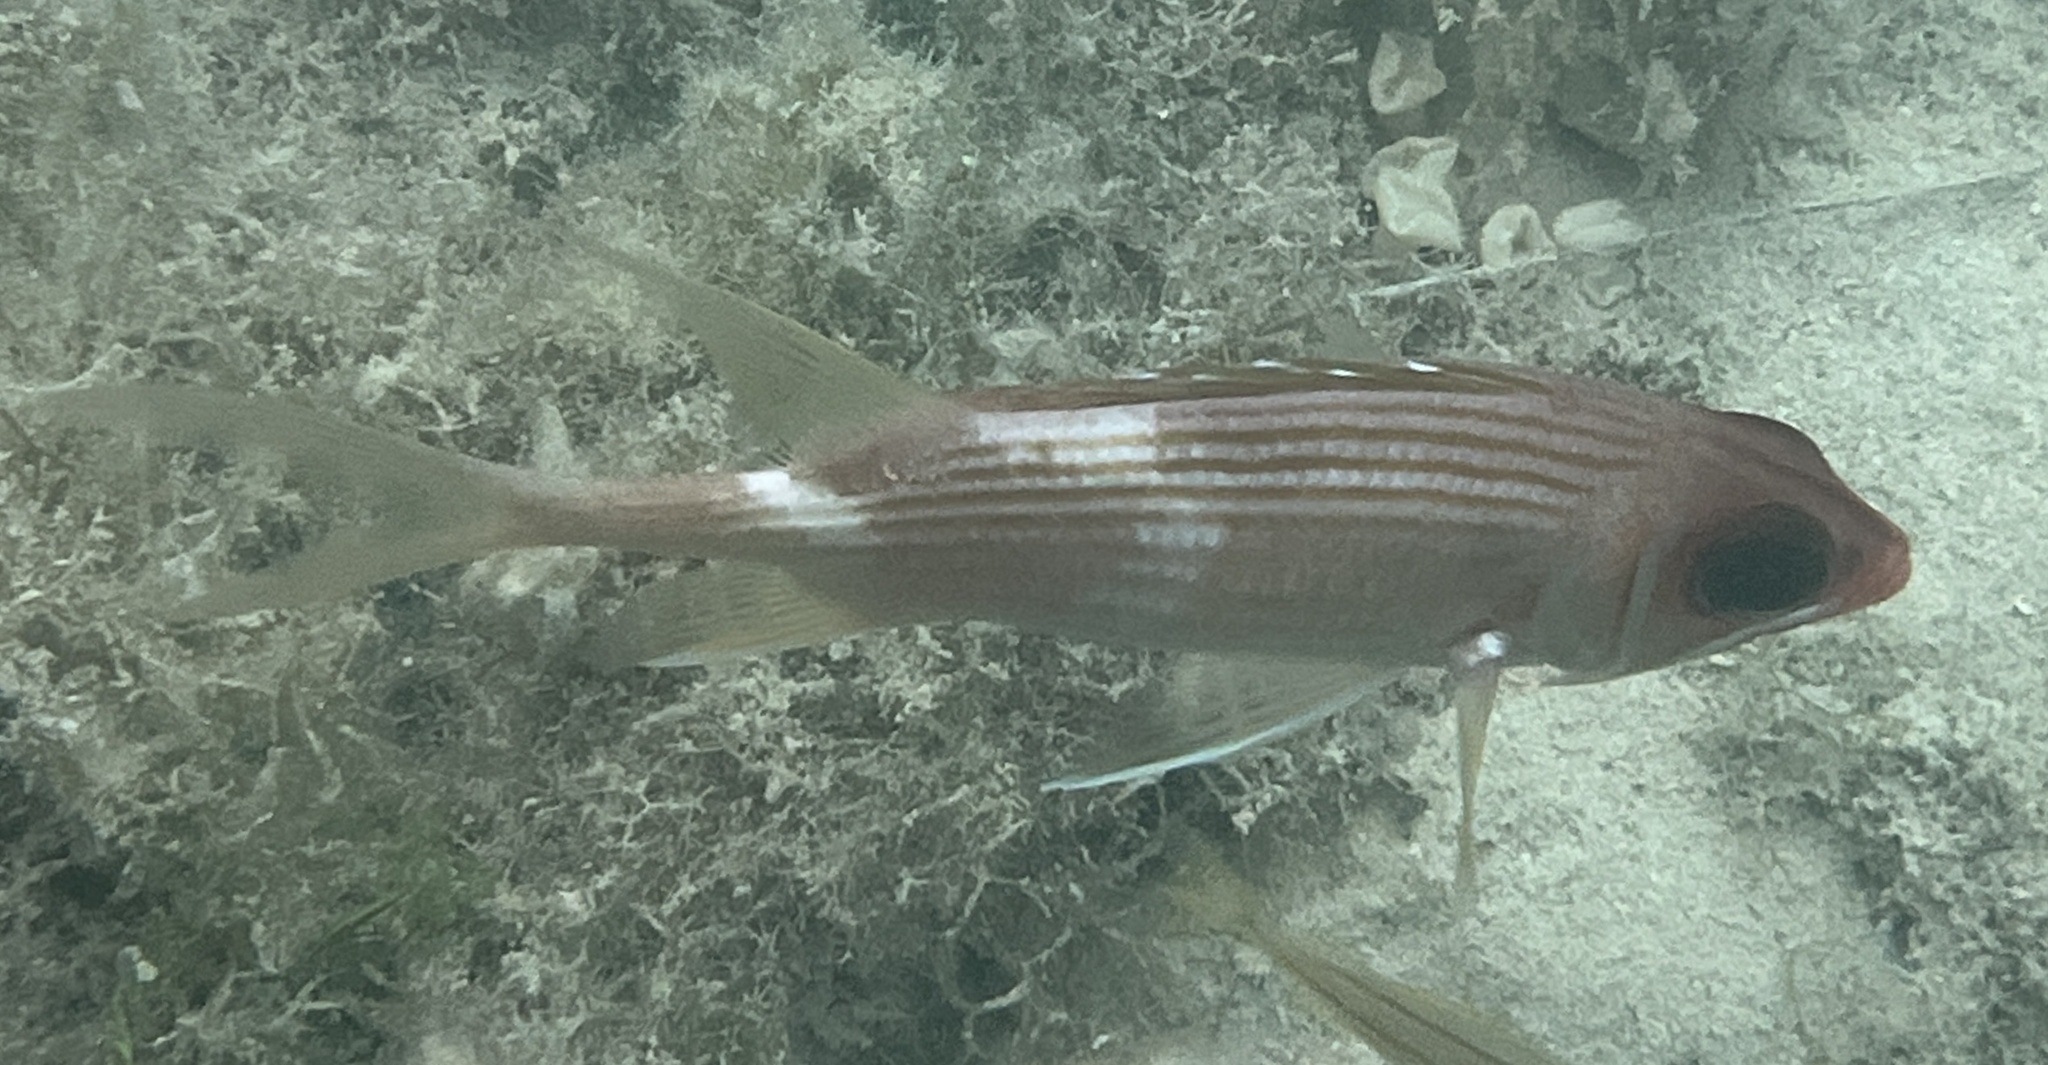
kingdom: Animalia
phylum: Chordata
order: Beryciformes
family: Holocentridae
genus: Holocentrus
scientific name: Holocentrus rufus
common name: Longspine squirrelfish
